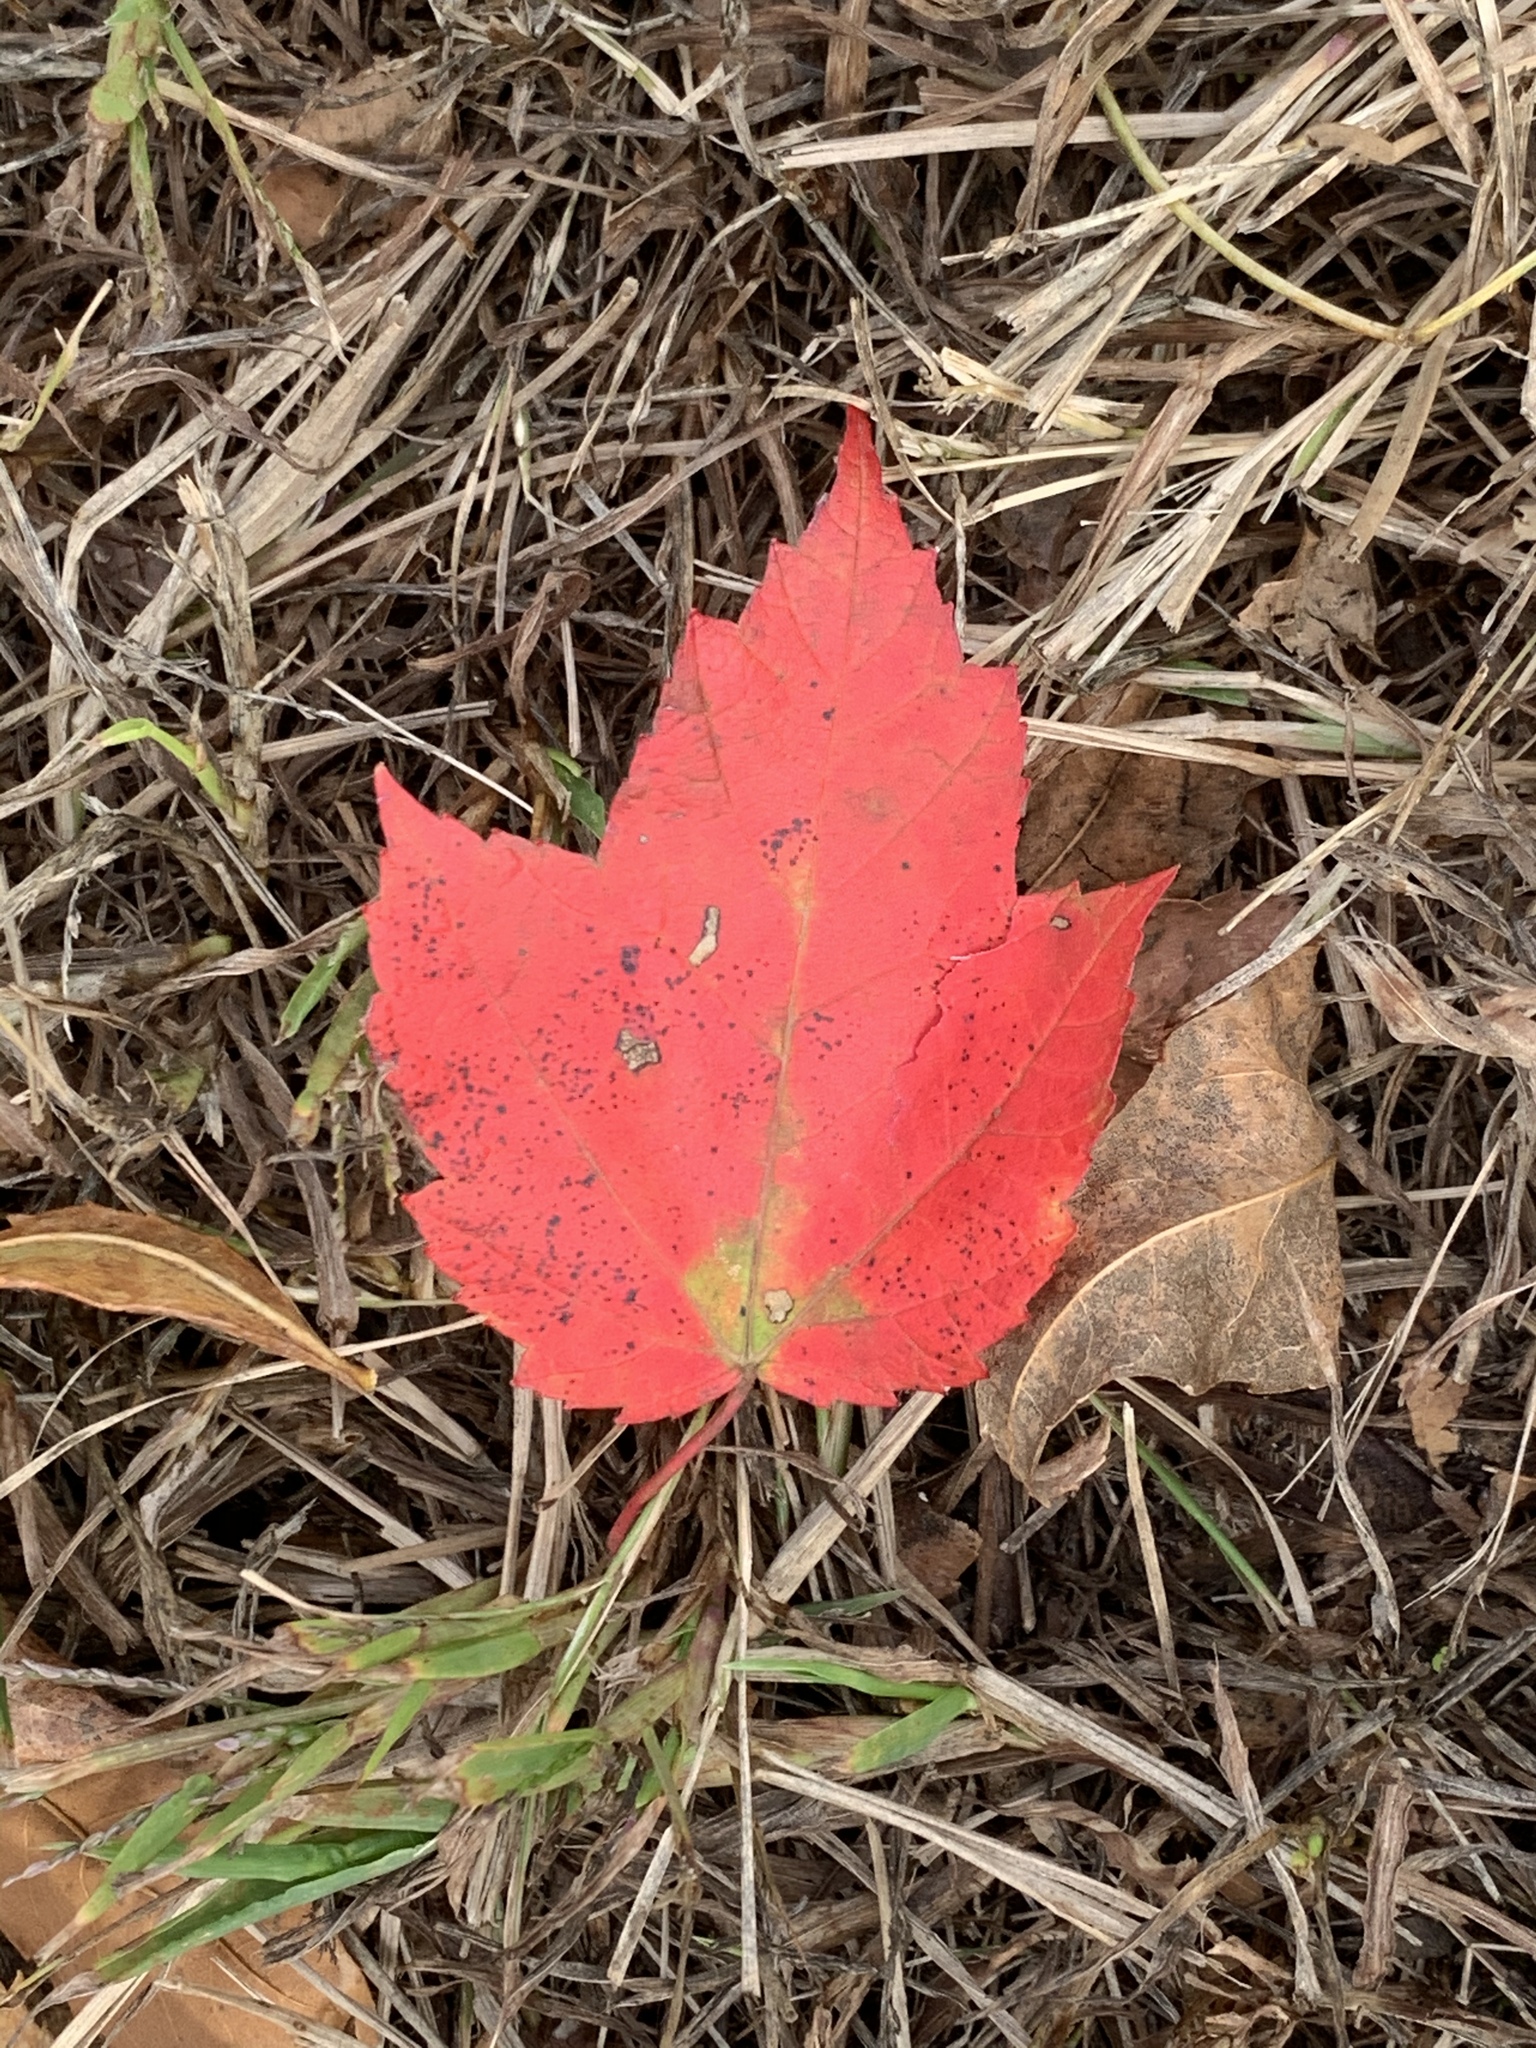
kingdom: Plantae
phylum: Tracheophyta
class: Magnoliopsida
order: Sapindales
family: Sapindaceae
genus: Acer
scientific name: Acer rubrum
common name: Red maple
